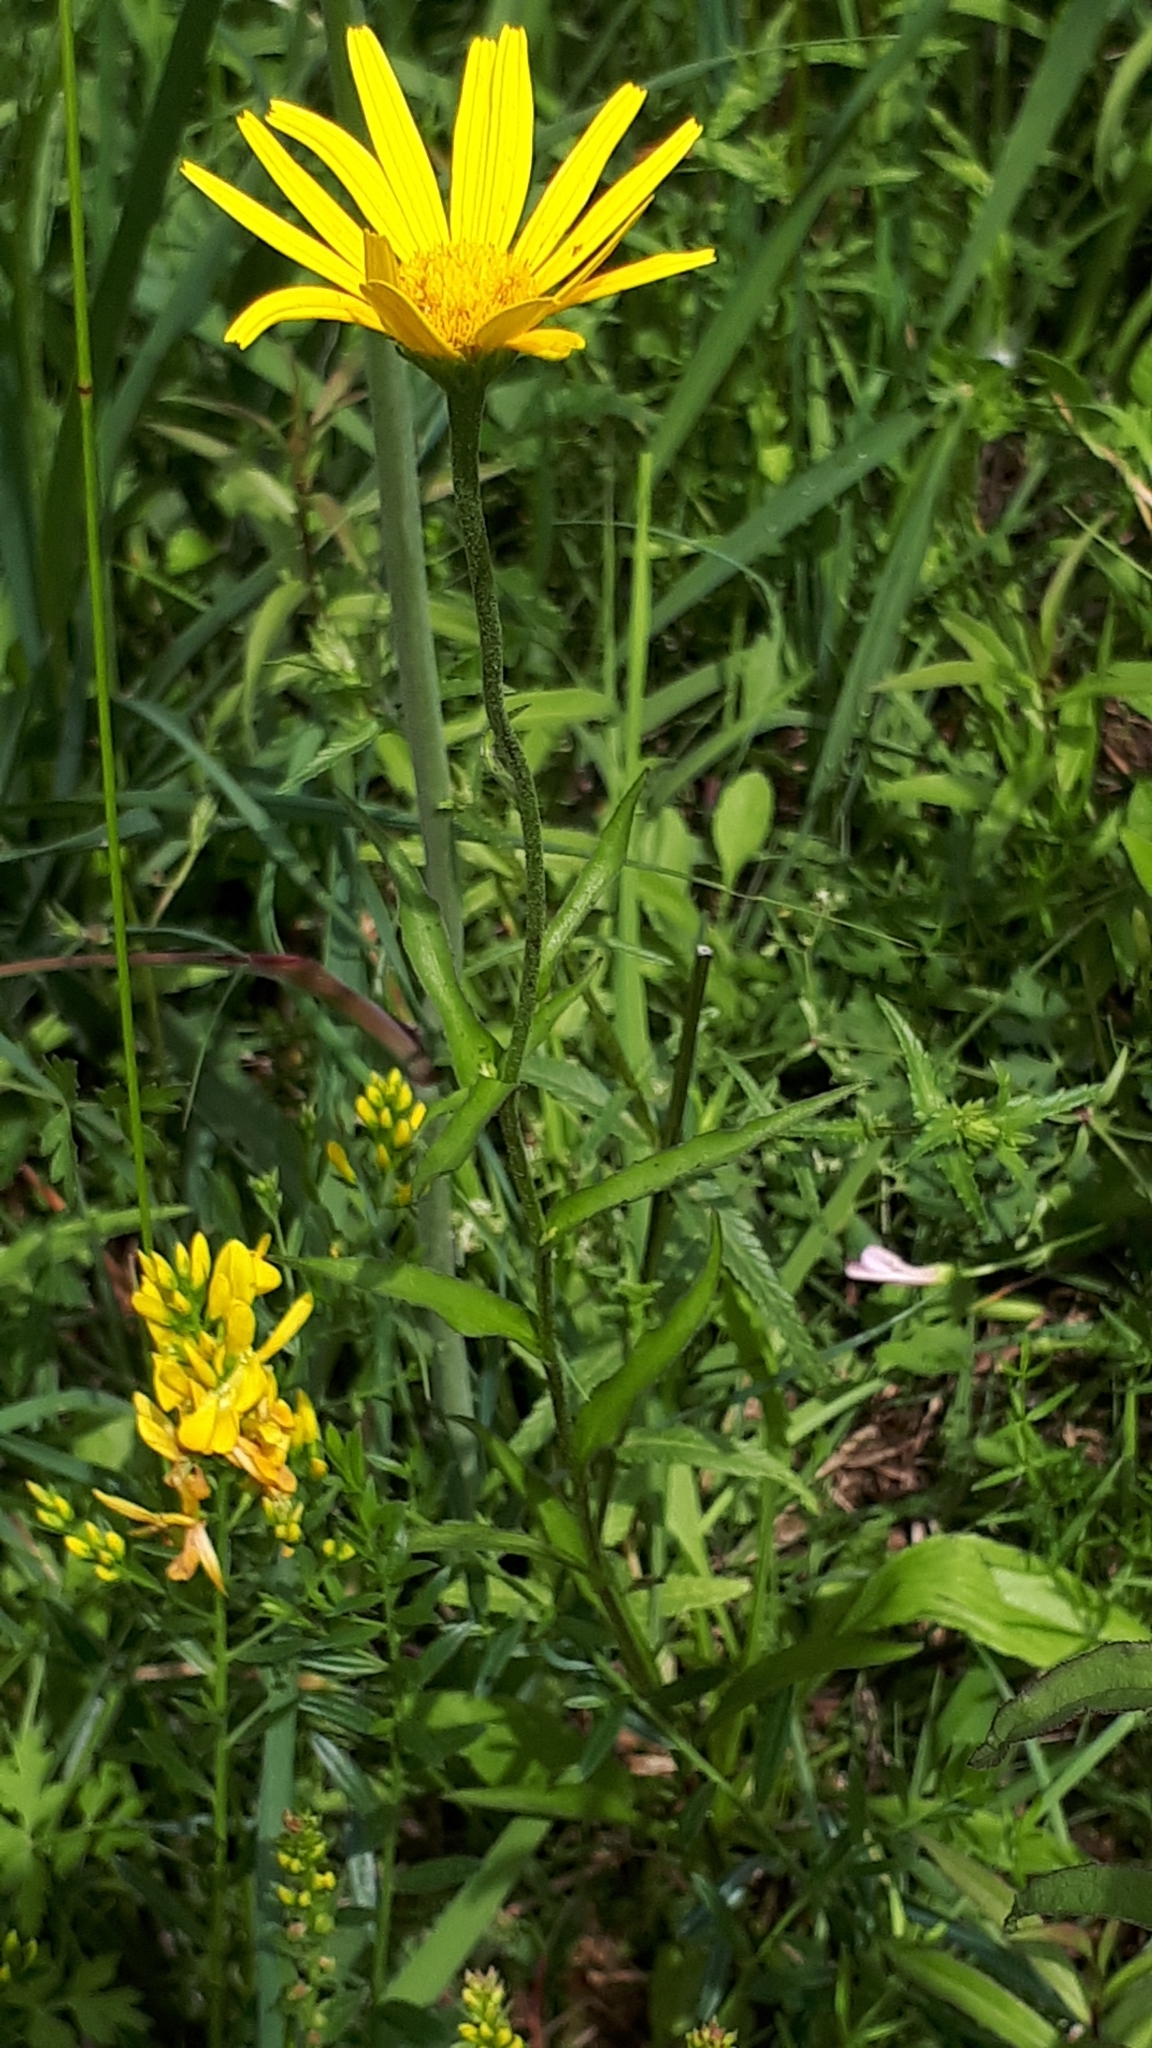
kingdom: Plantae
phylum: Tracheophyta
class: Magnoliopsida
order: Asterales
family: Asteraceae
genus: Buphthalmum
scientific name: Buphthalmum salicifolium
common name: Willow-leaved yellow-oxeye
